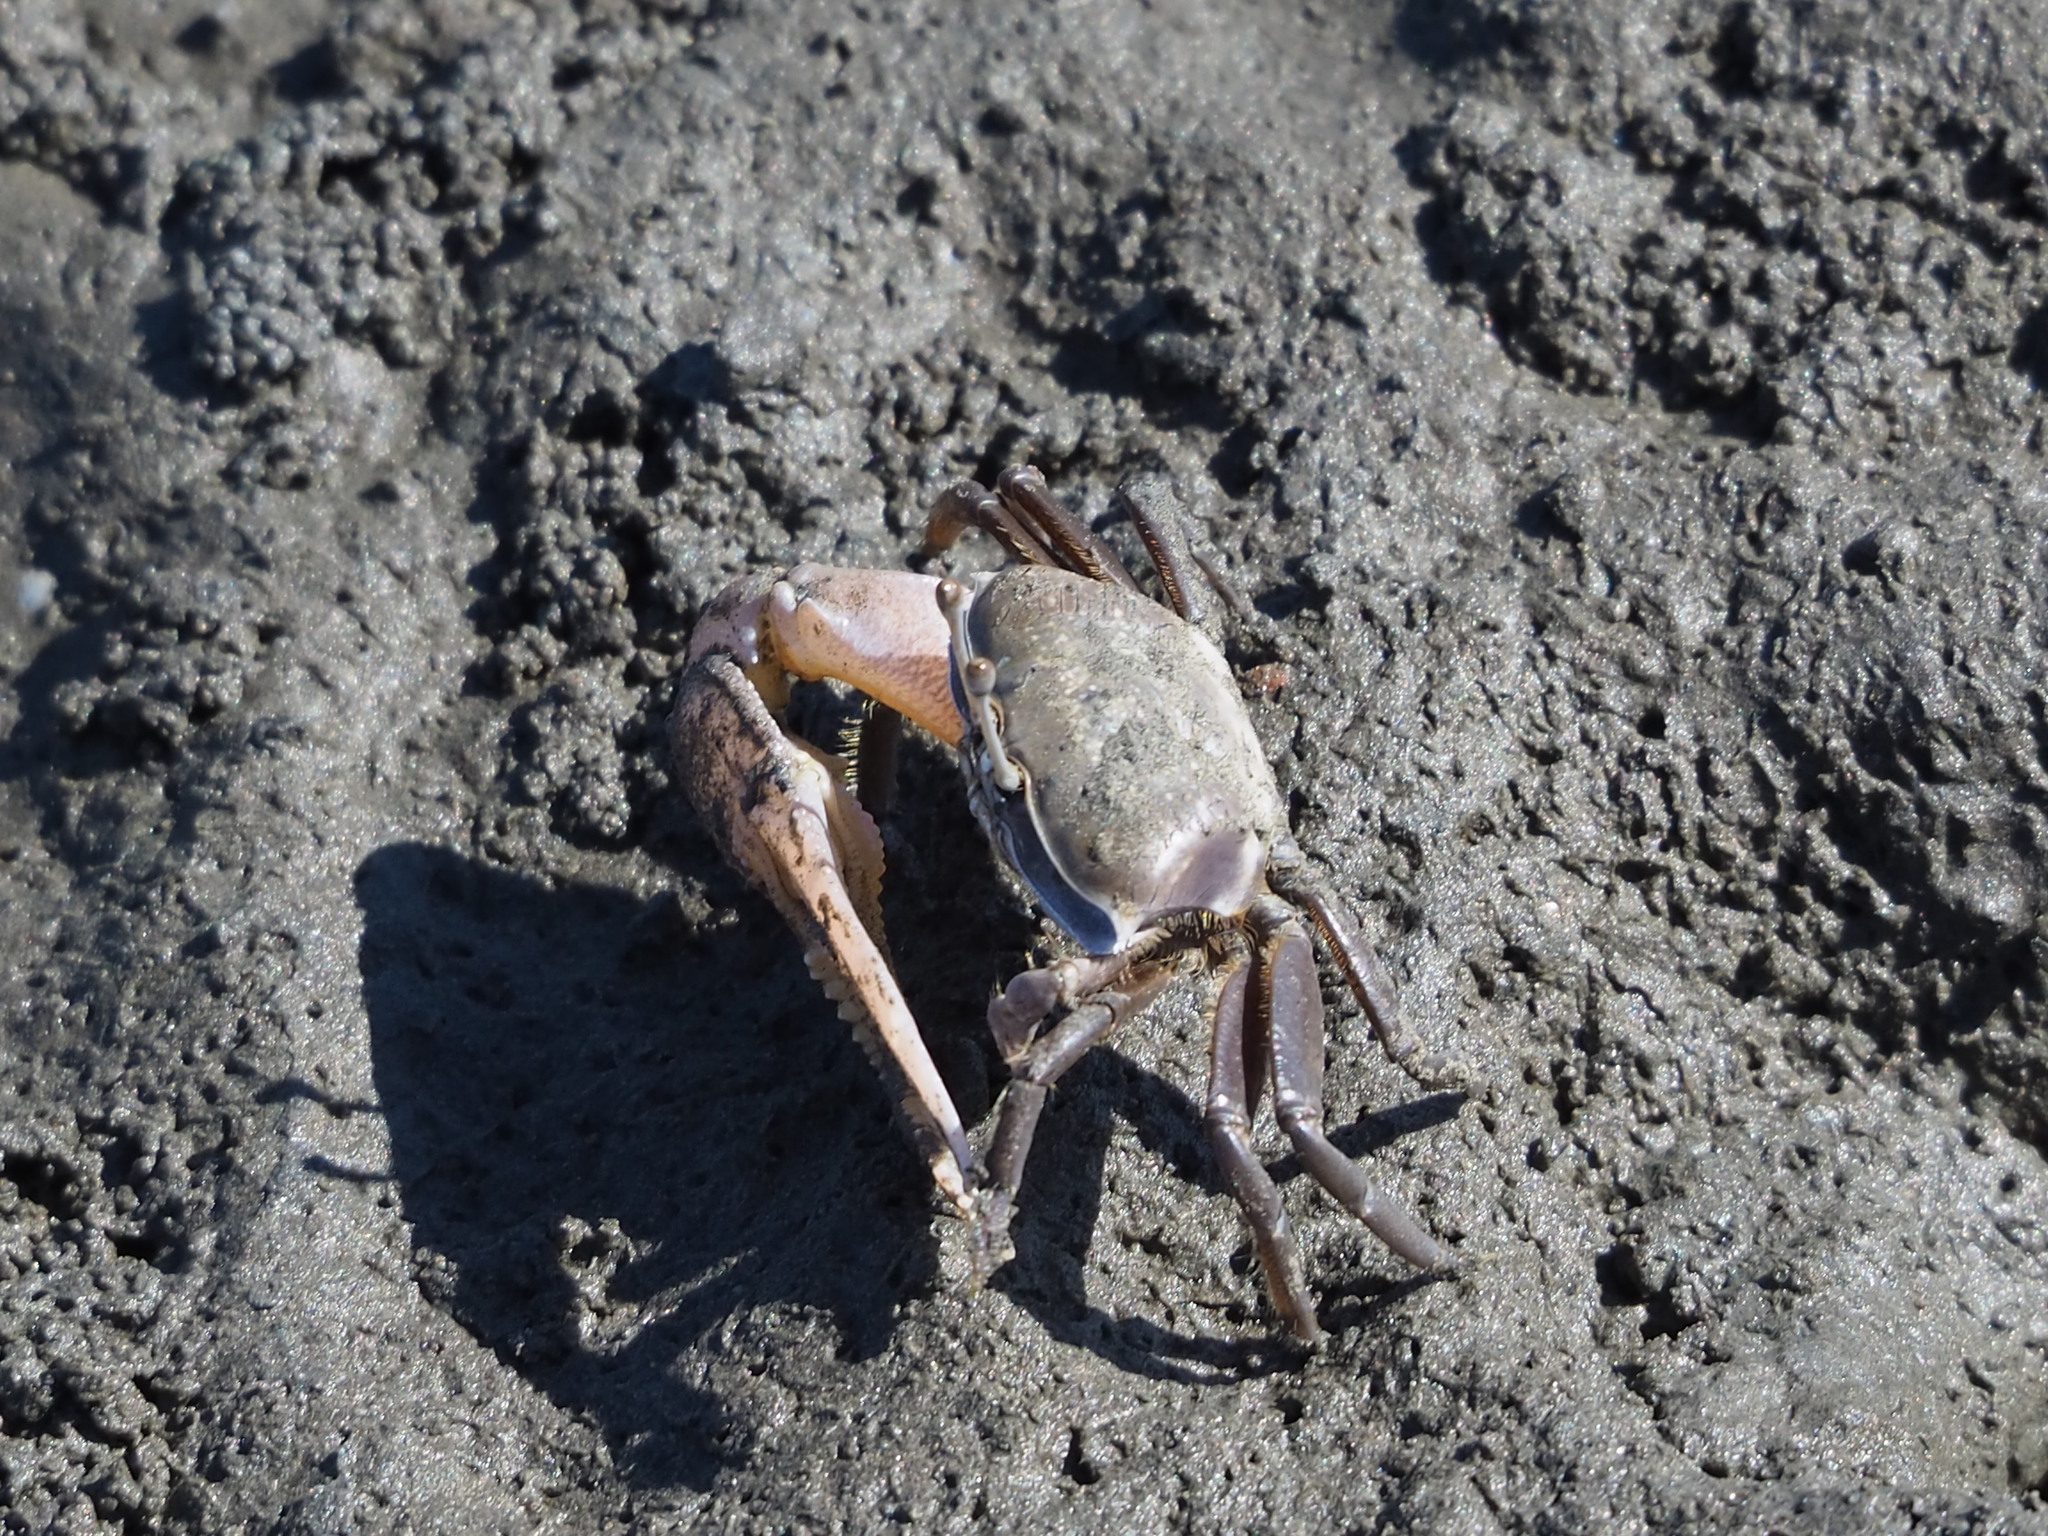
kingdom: Animalia
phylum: Arthropoda
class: Malacostraca
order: Decapoda
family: Ocypodidae
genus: Gelasimus
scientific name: Gelasimus borealis
